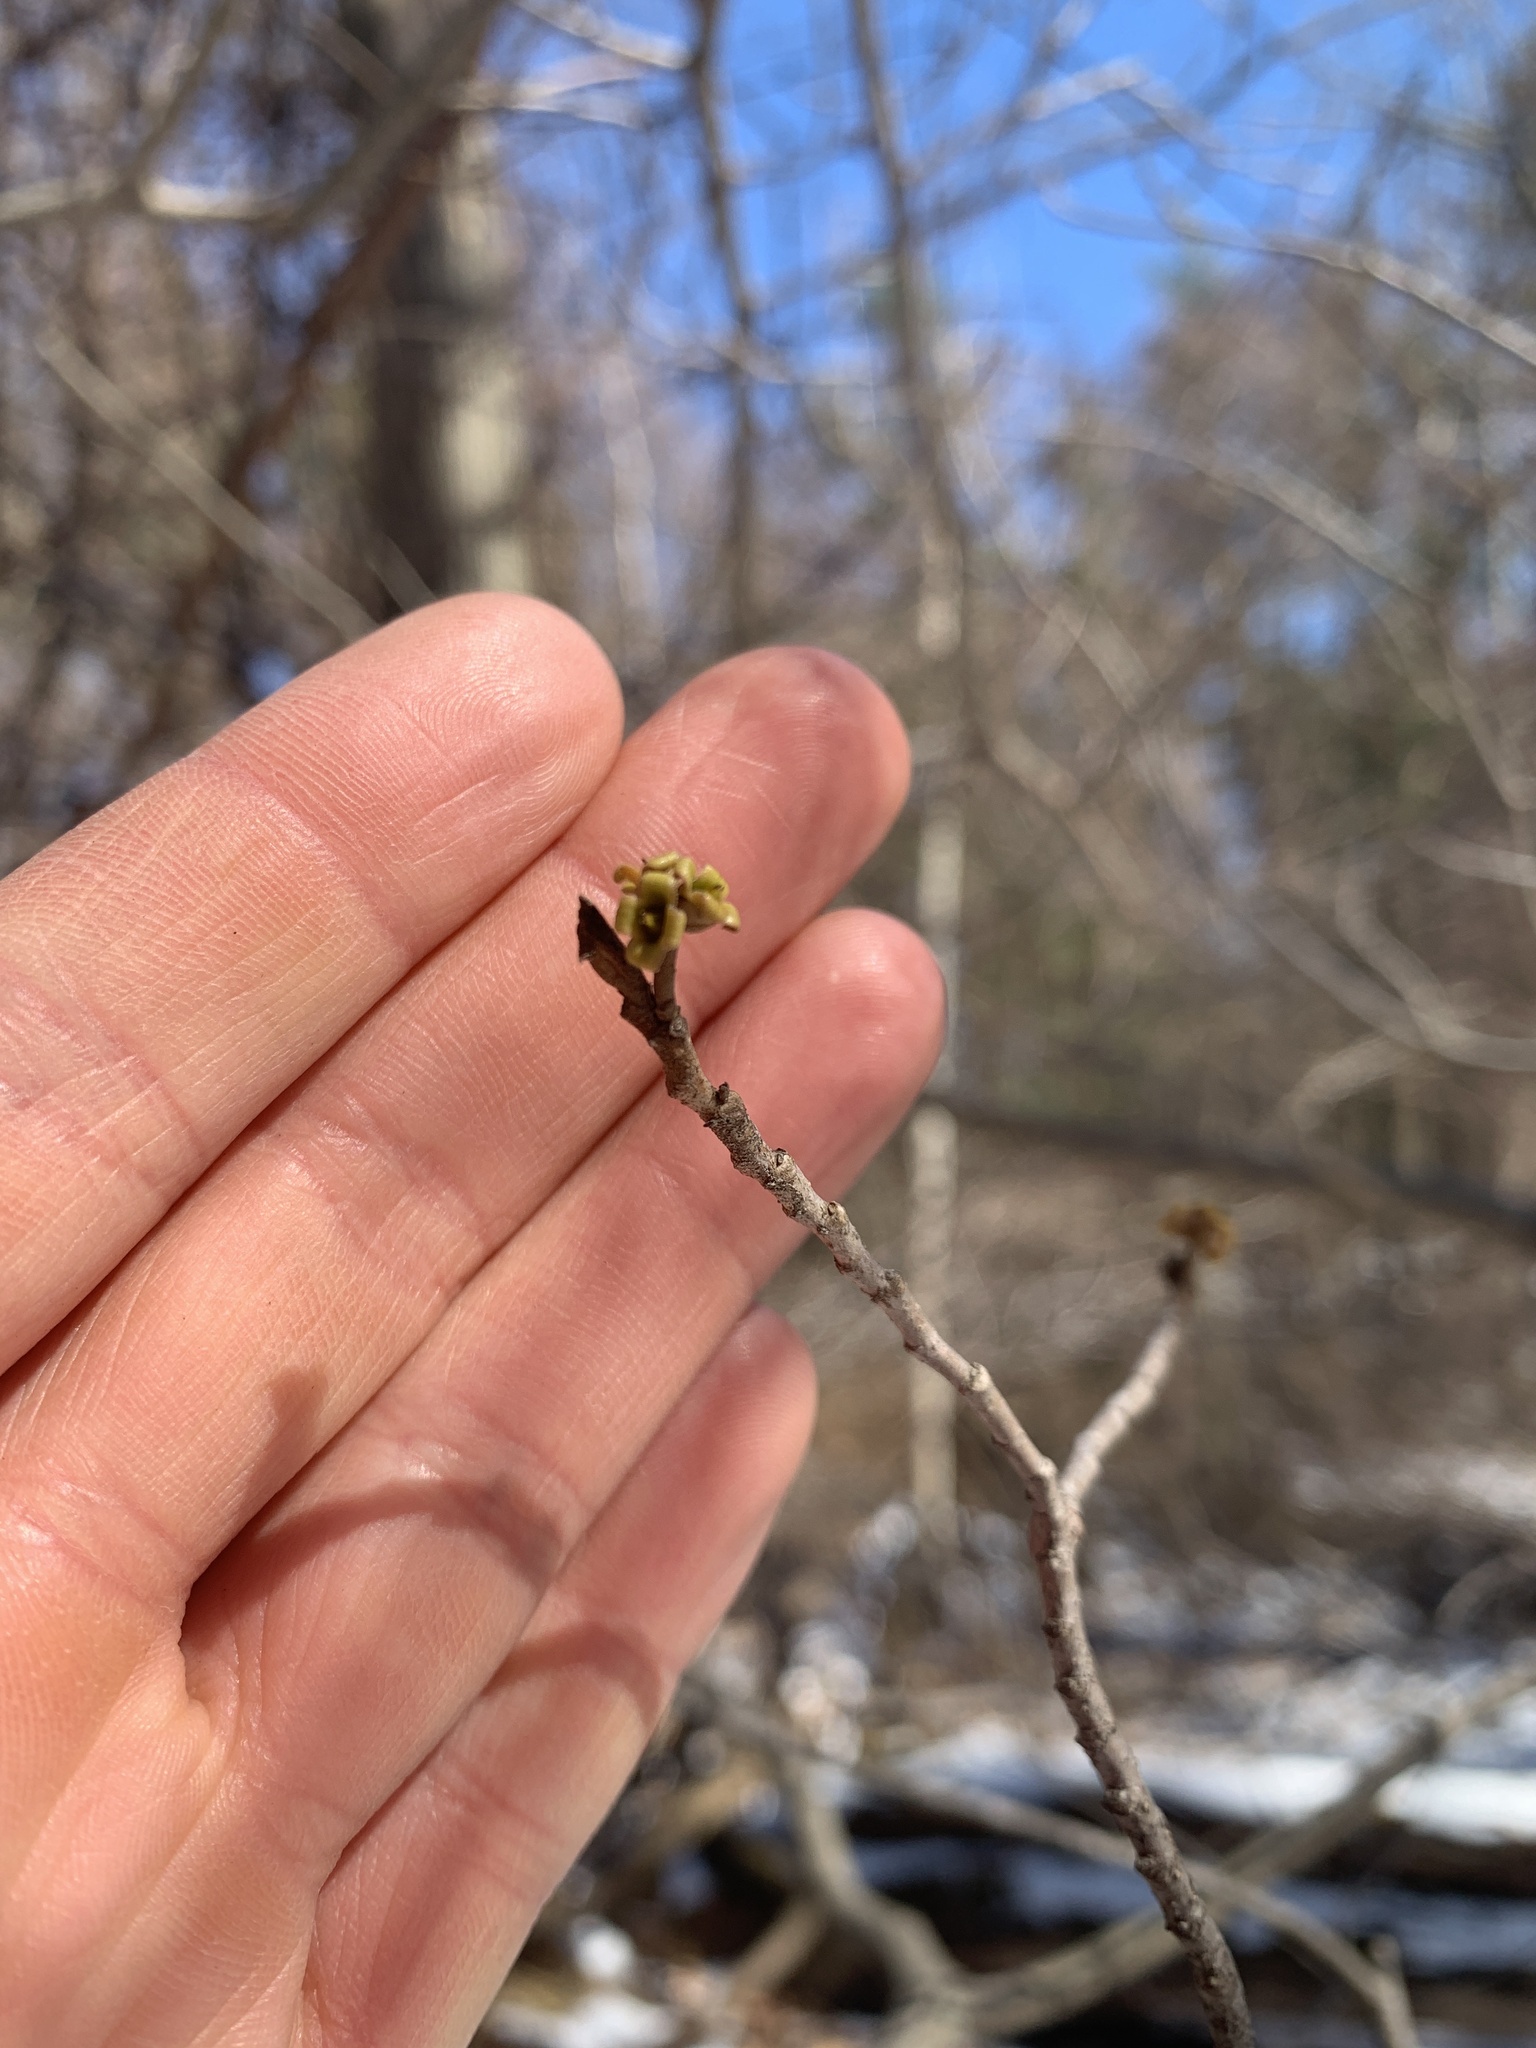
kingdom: Plantae
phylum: Tracheophyta
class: Magnoliopsida
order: Saxifragales
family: Hamamelidaceae
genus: Hamamelis
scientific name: Hamamelis virginiana
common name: Witch-hazel
